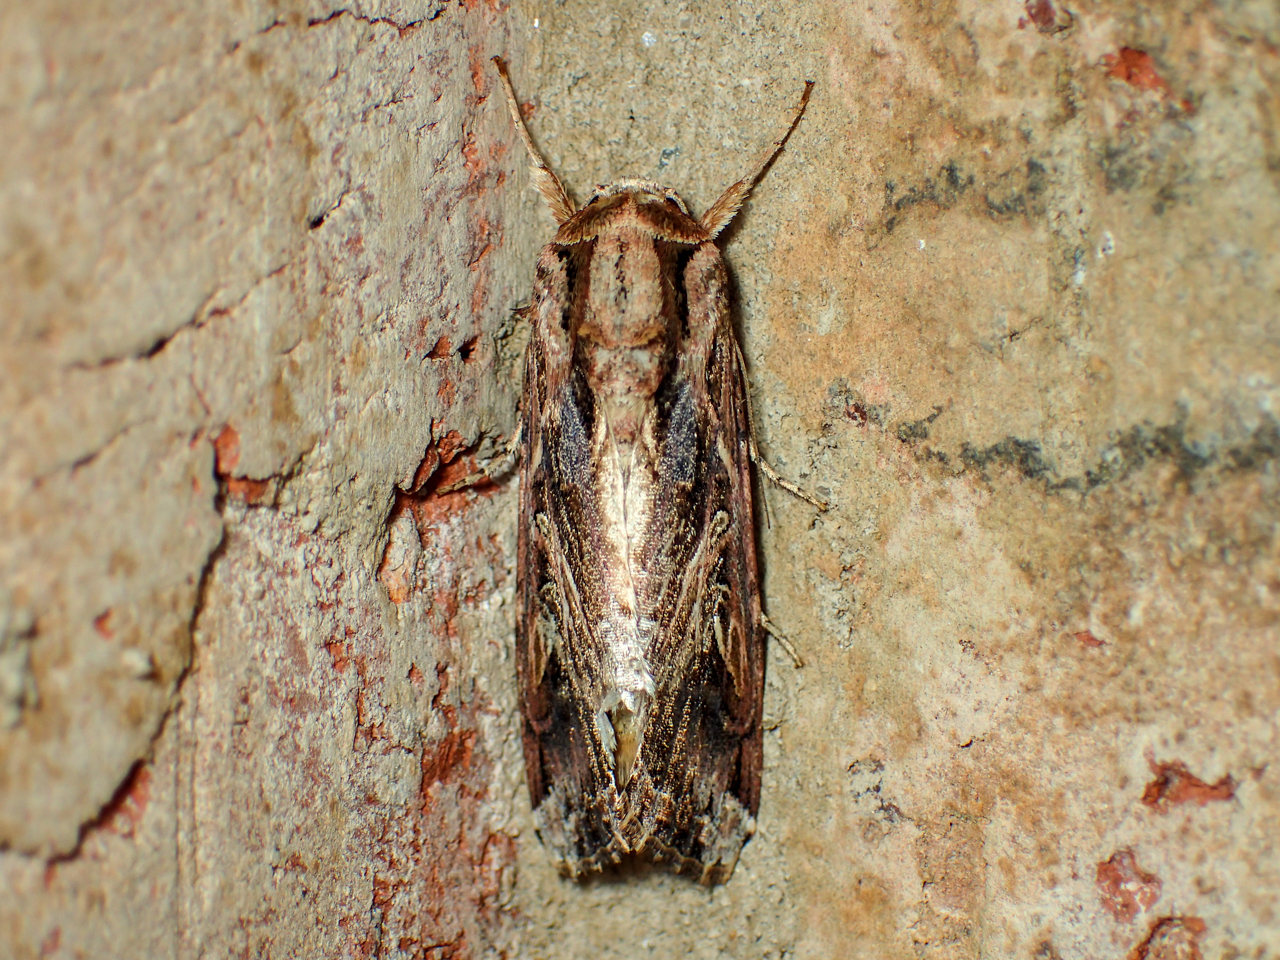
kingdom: Animalia
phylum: Arthropoda
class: Insecta
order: Lepidoptera
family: Noctuidae
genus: Spodoptera
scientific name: Spodoptera dolichos
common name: Sweetpotato armyworm
